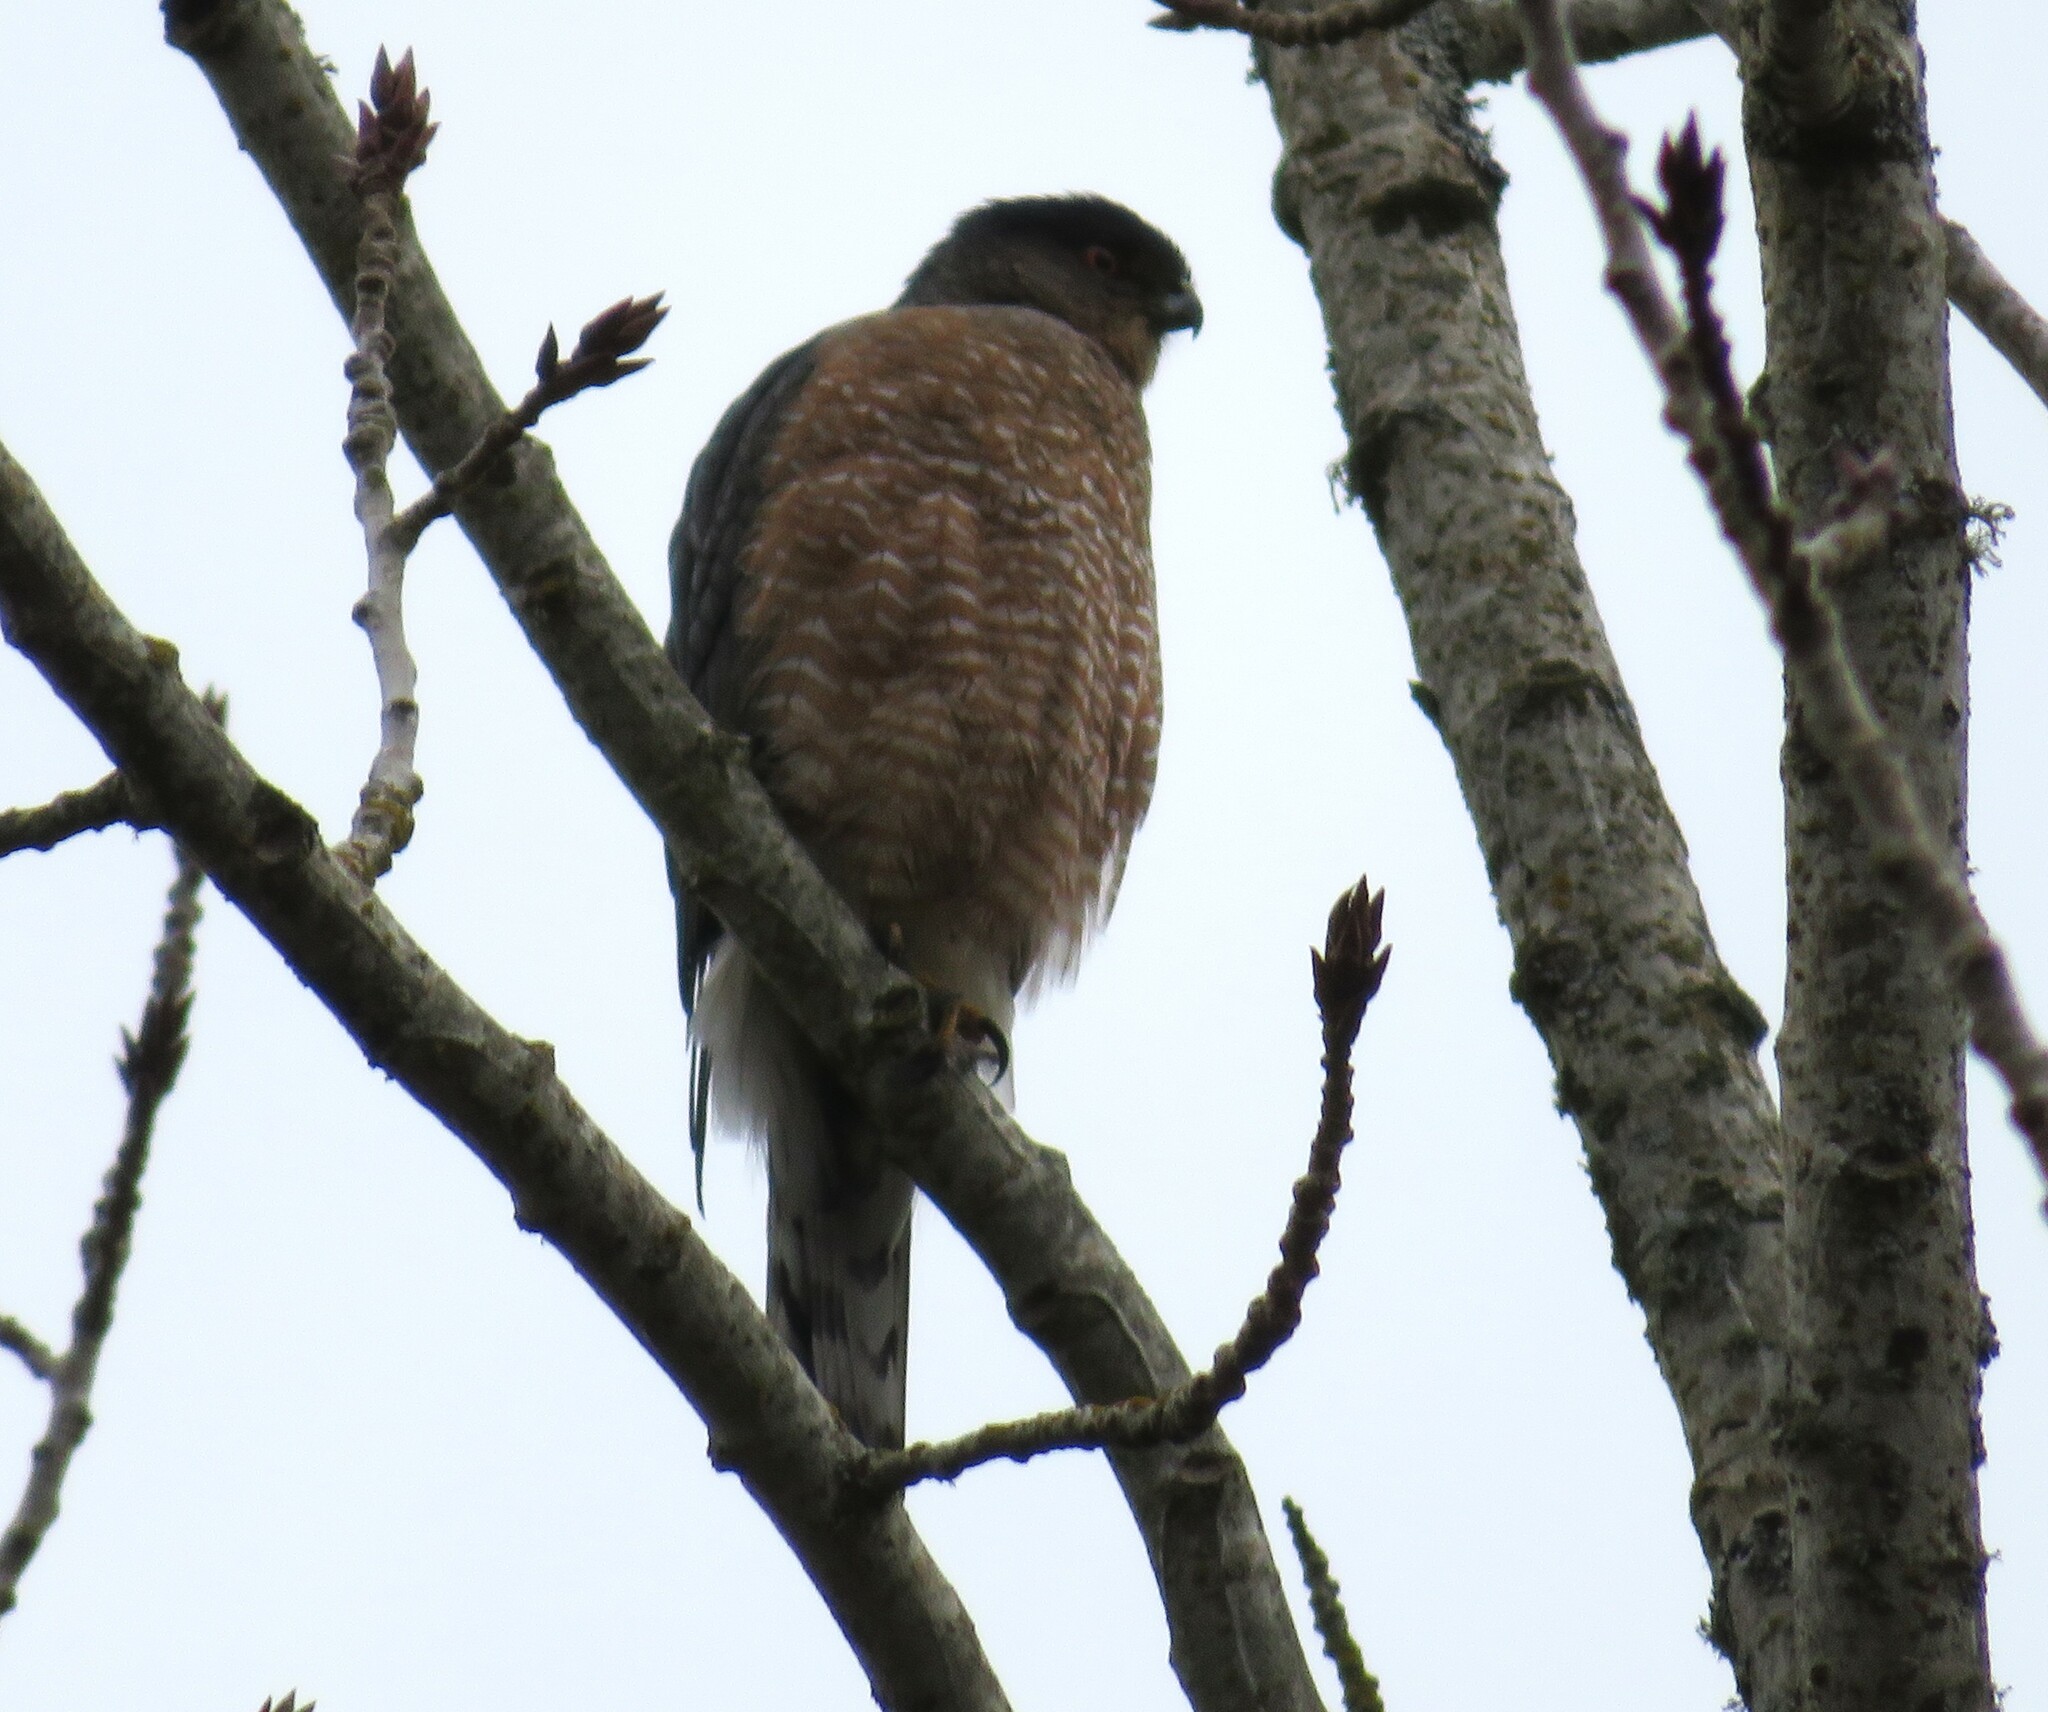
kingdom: Animalia
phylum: Chordata
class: Aves
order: Accipitriformes
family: Accipitridae
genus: Accipiter
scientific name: Accipiter cooperii
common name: Cooper's hawk
